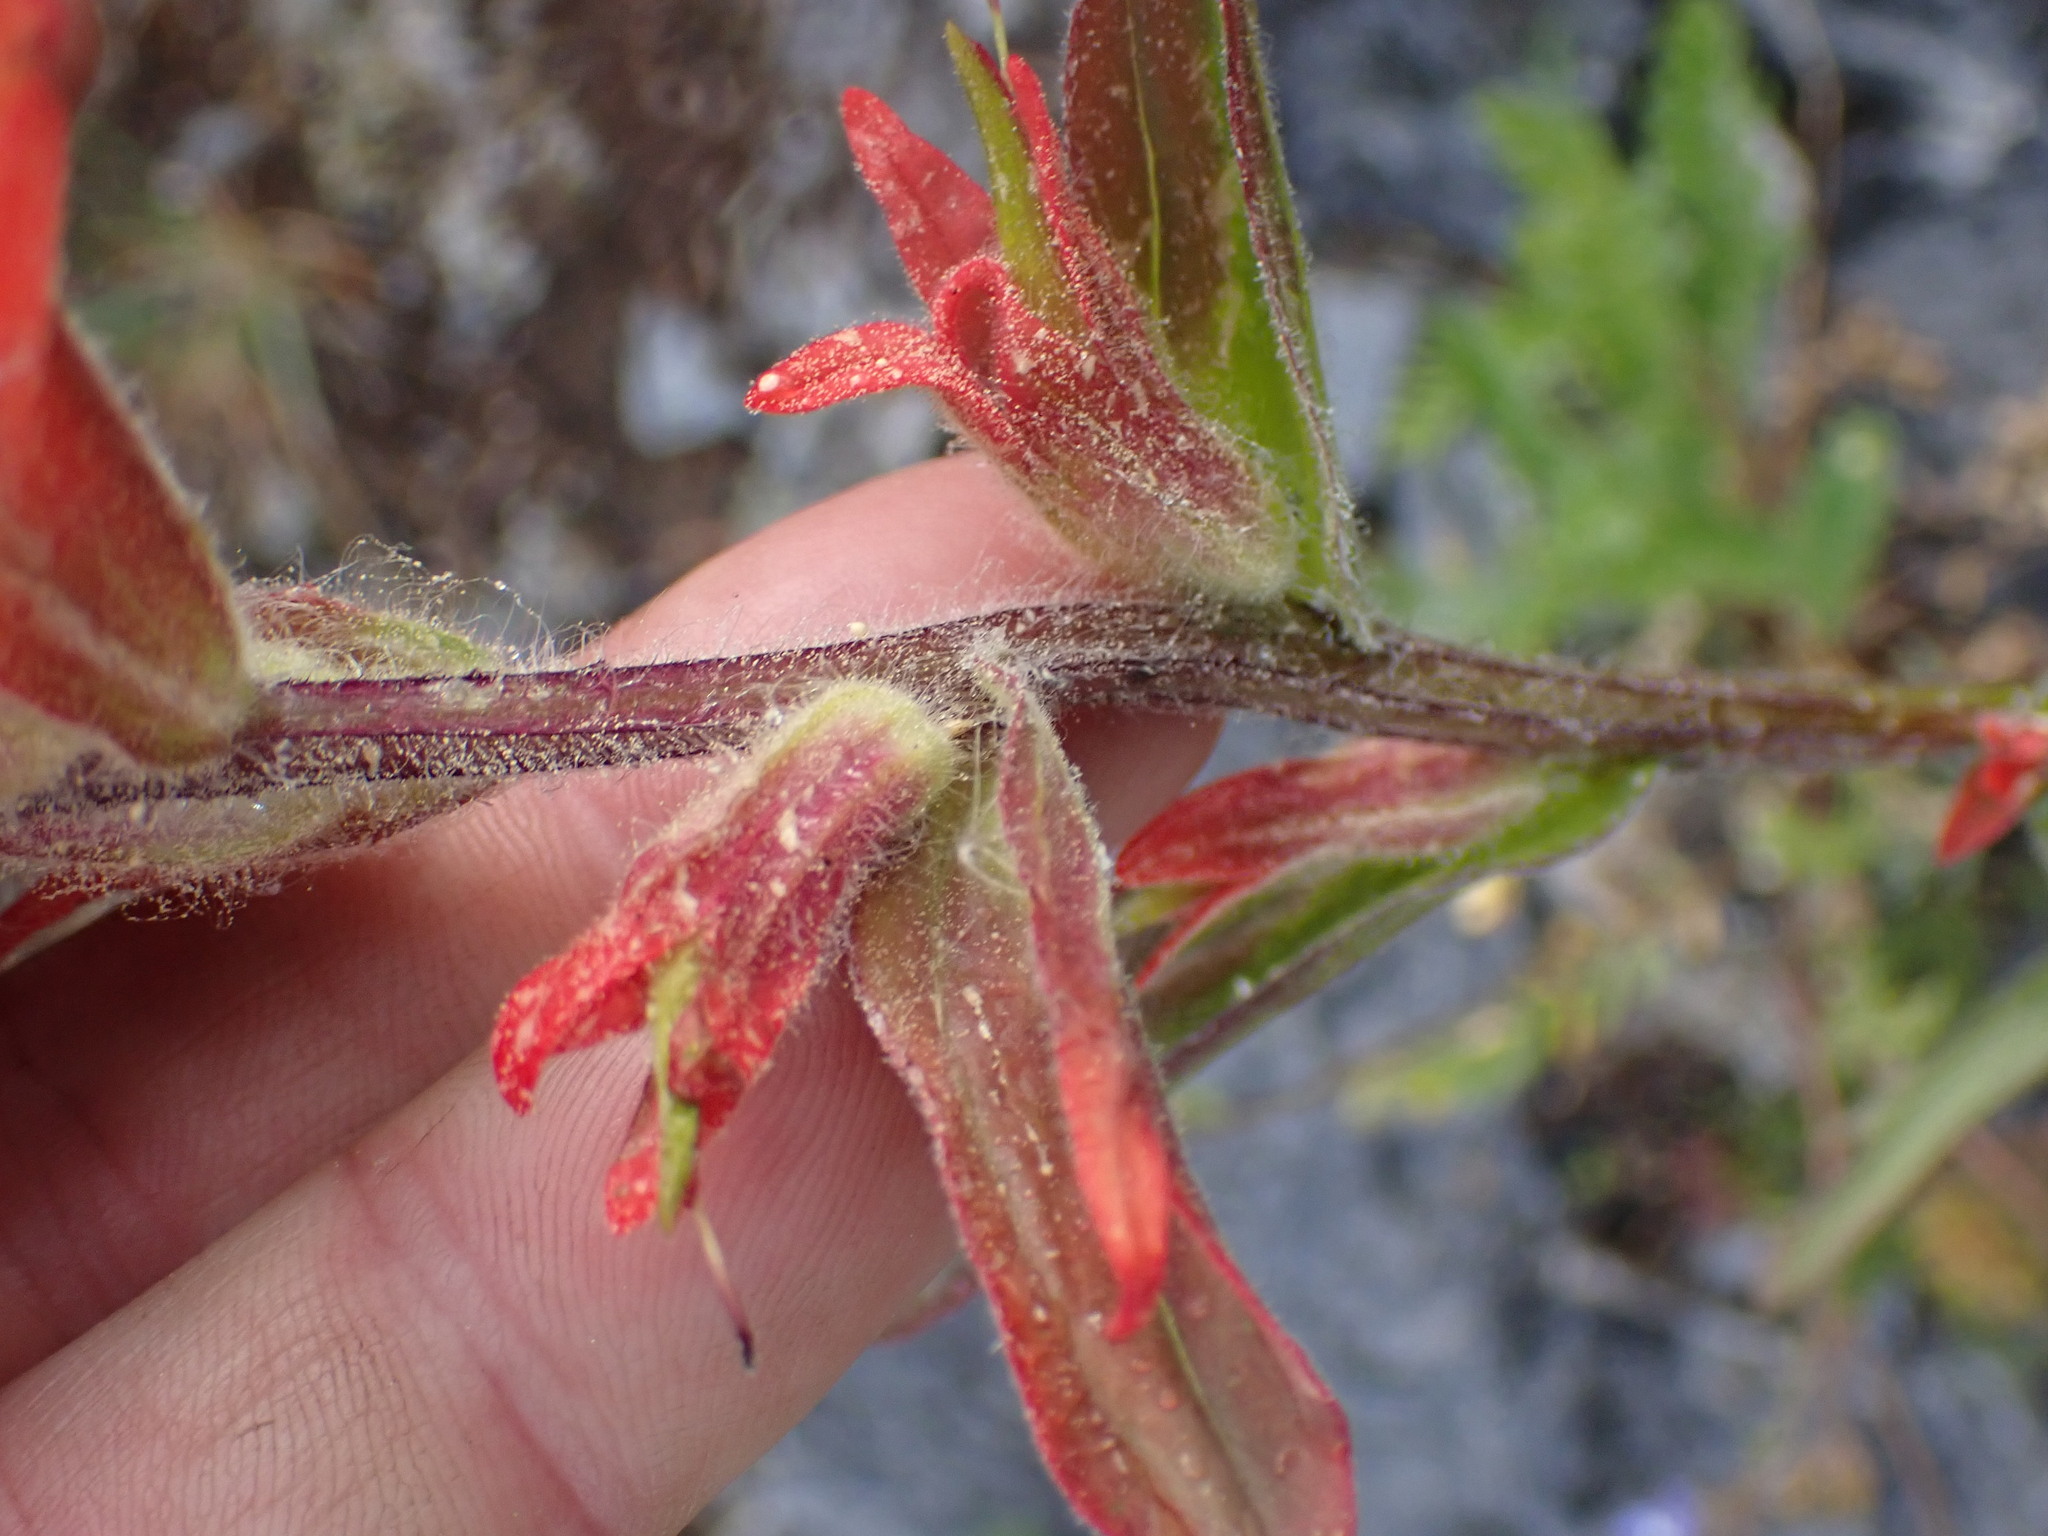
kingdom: Plantae
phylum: Tracheophyta
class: Magnoliopsida
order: Lamiales
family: Orobanchaceae
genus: Castilleja
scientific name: Castilleja miniata
